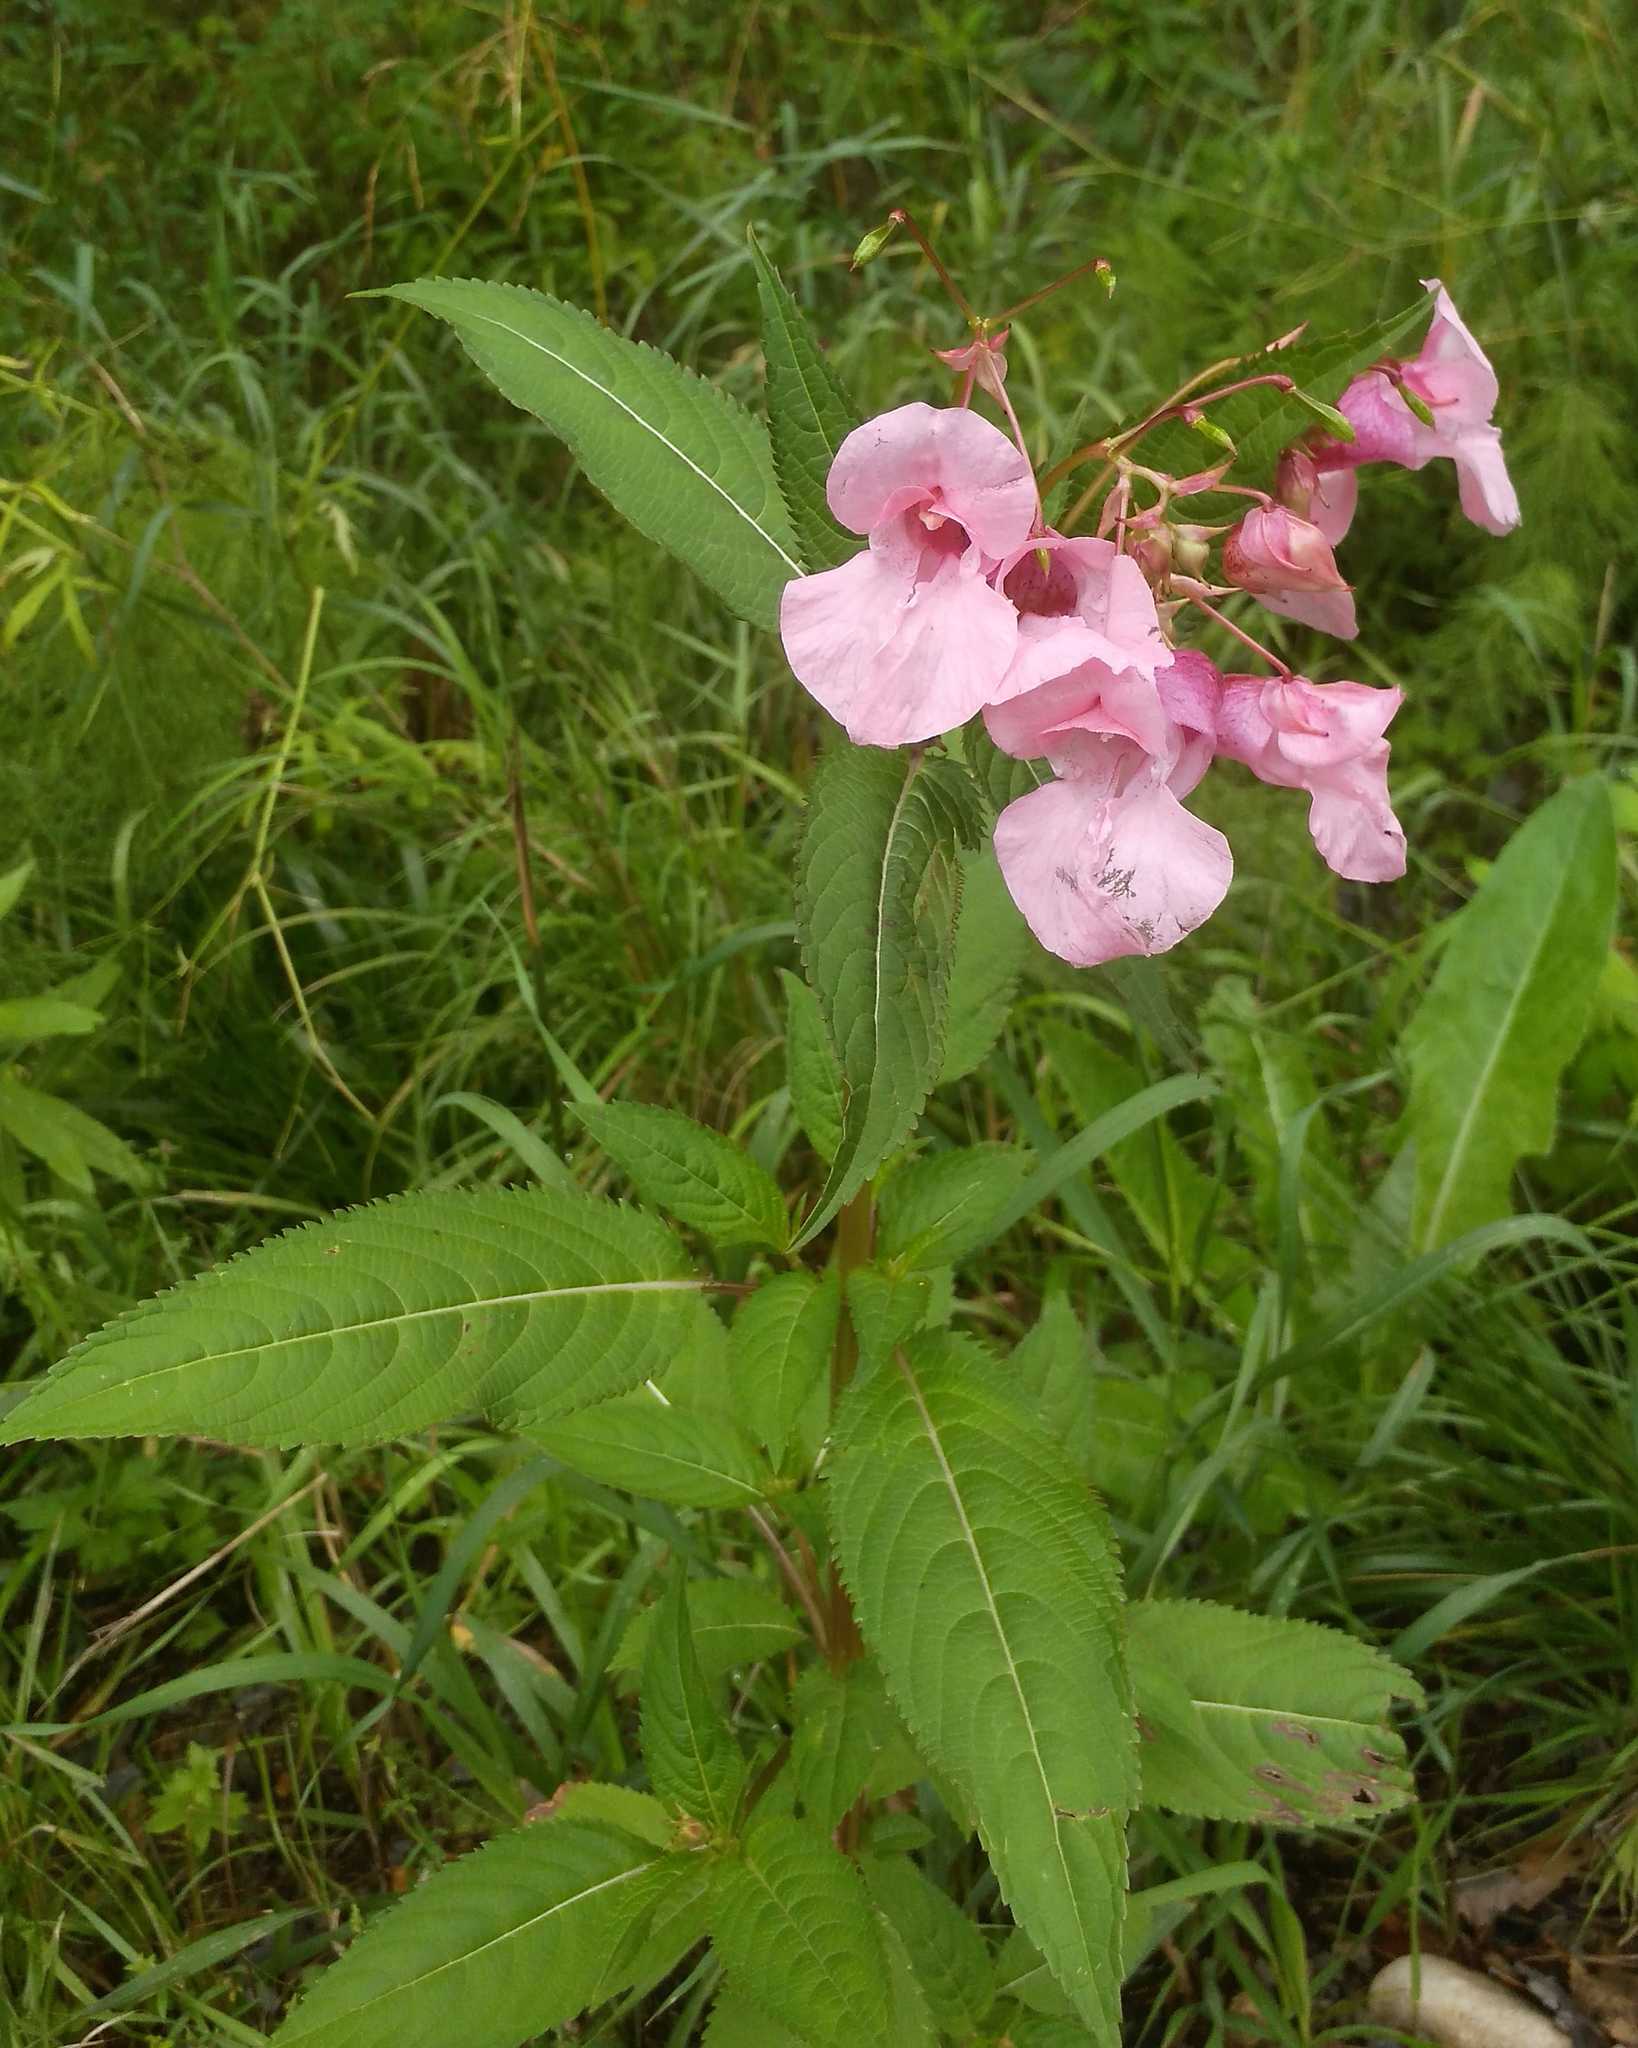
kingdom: Plantae
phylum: Tracheophyta
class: Magnoliopsida
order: Ericales
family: Balsaminaceae
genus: Impatiens
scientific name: Impatiens glandulifera
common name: Himalayan balsam
